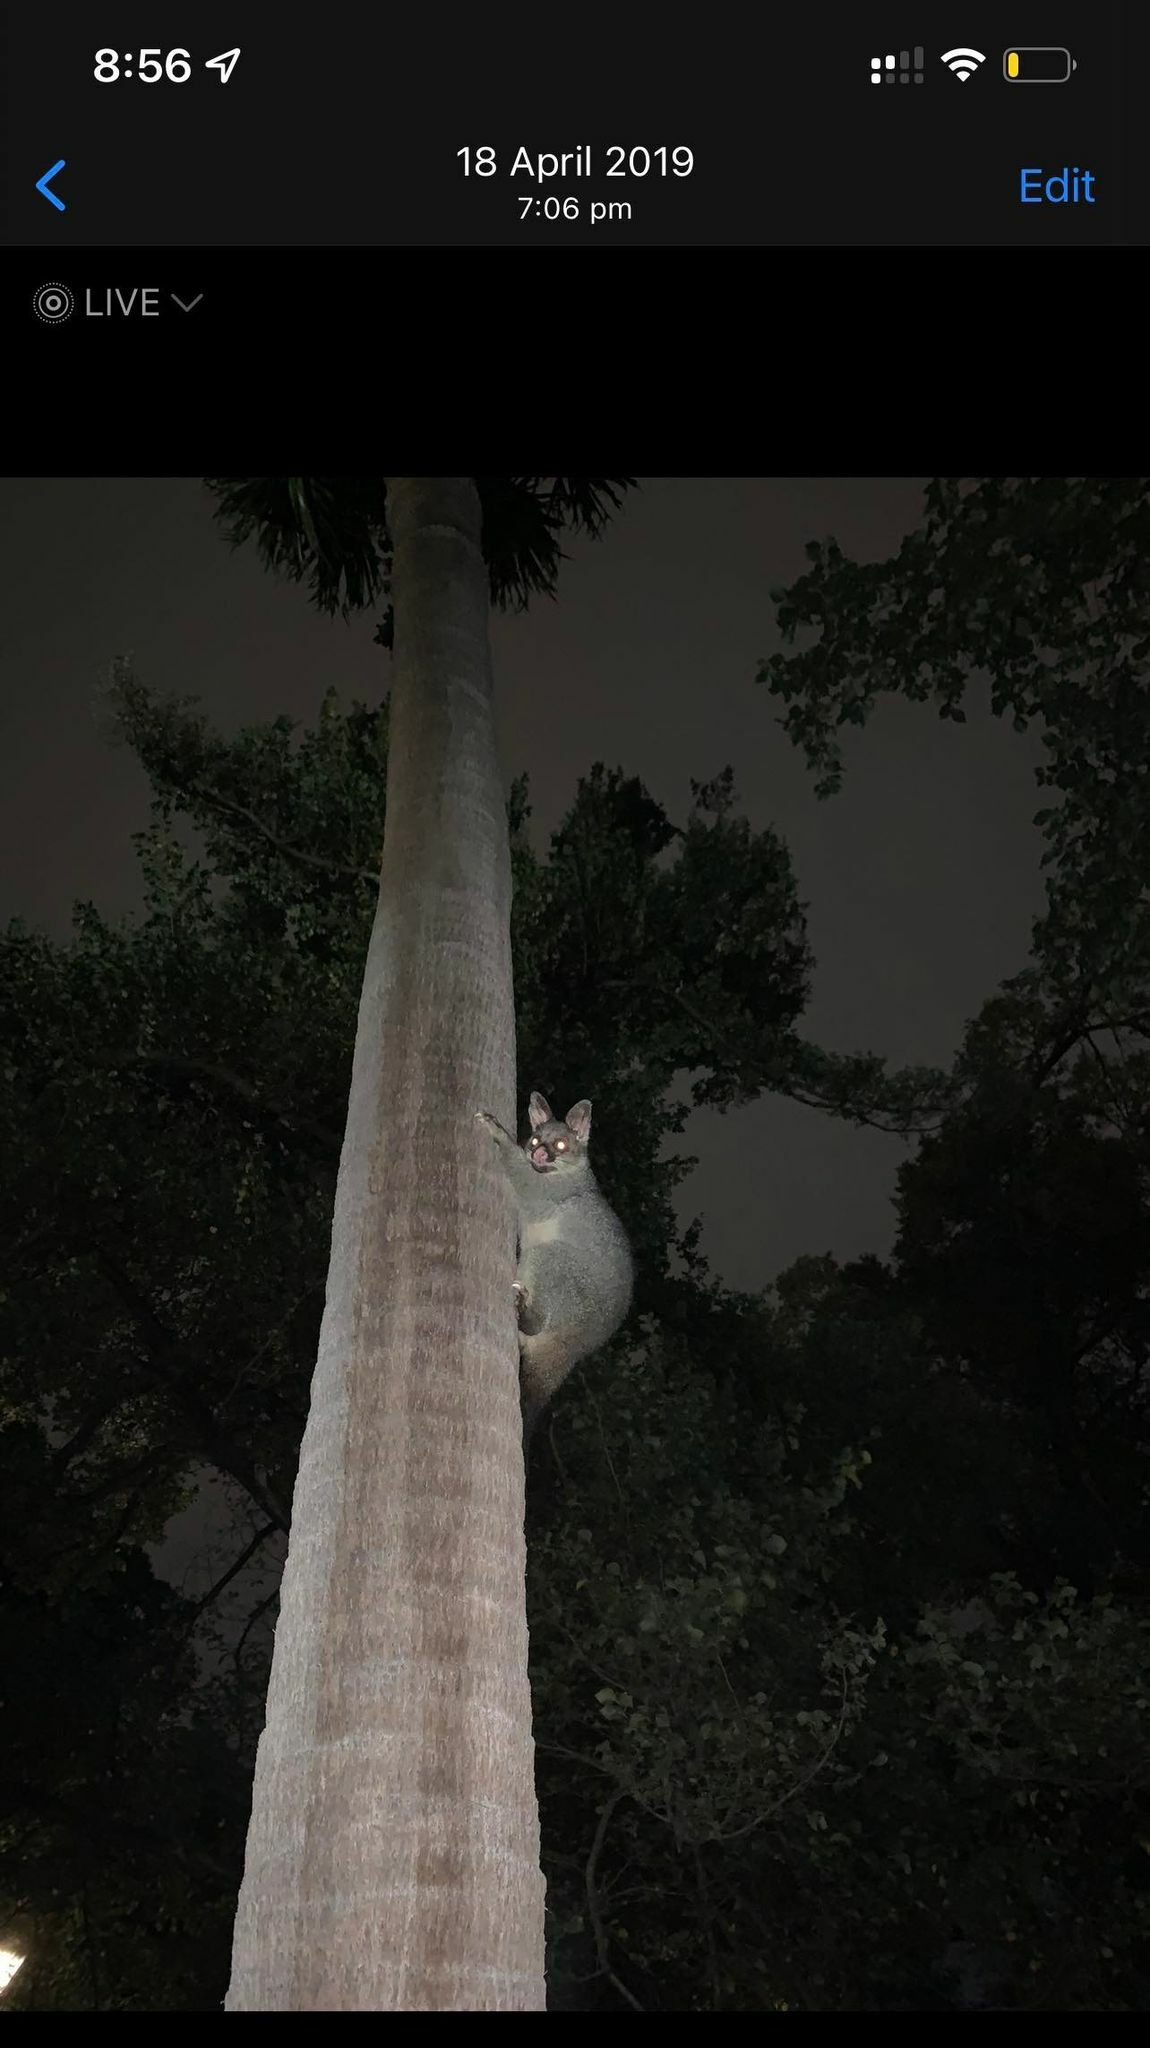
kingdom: Animalia
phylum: Chordata
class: Mammalia
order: Diprotodontia
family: Phalangeridae
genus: Trichosurus
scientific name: Trichosurus vulpecula
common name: Common brushtail
